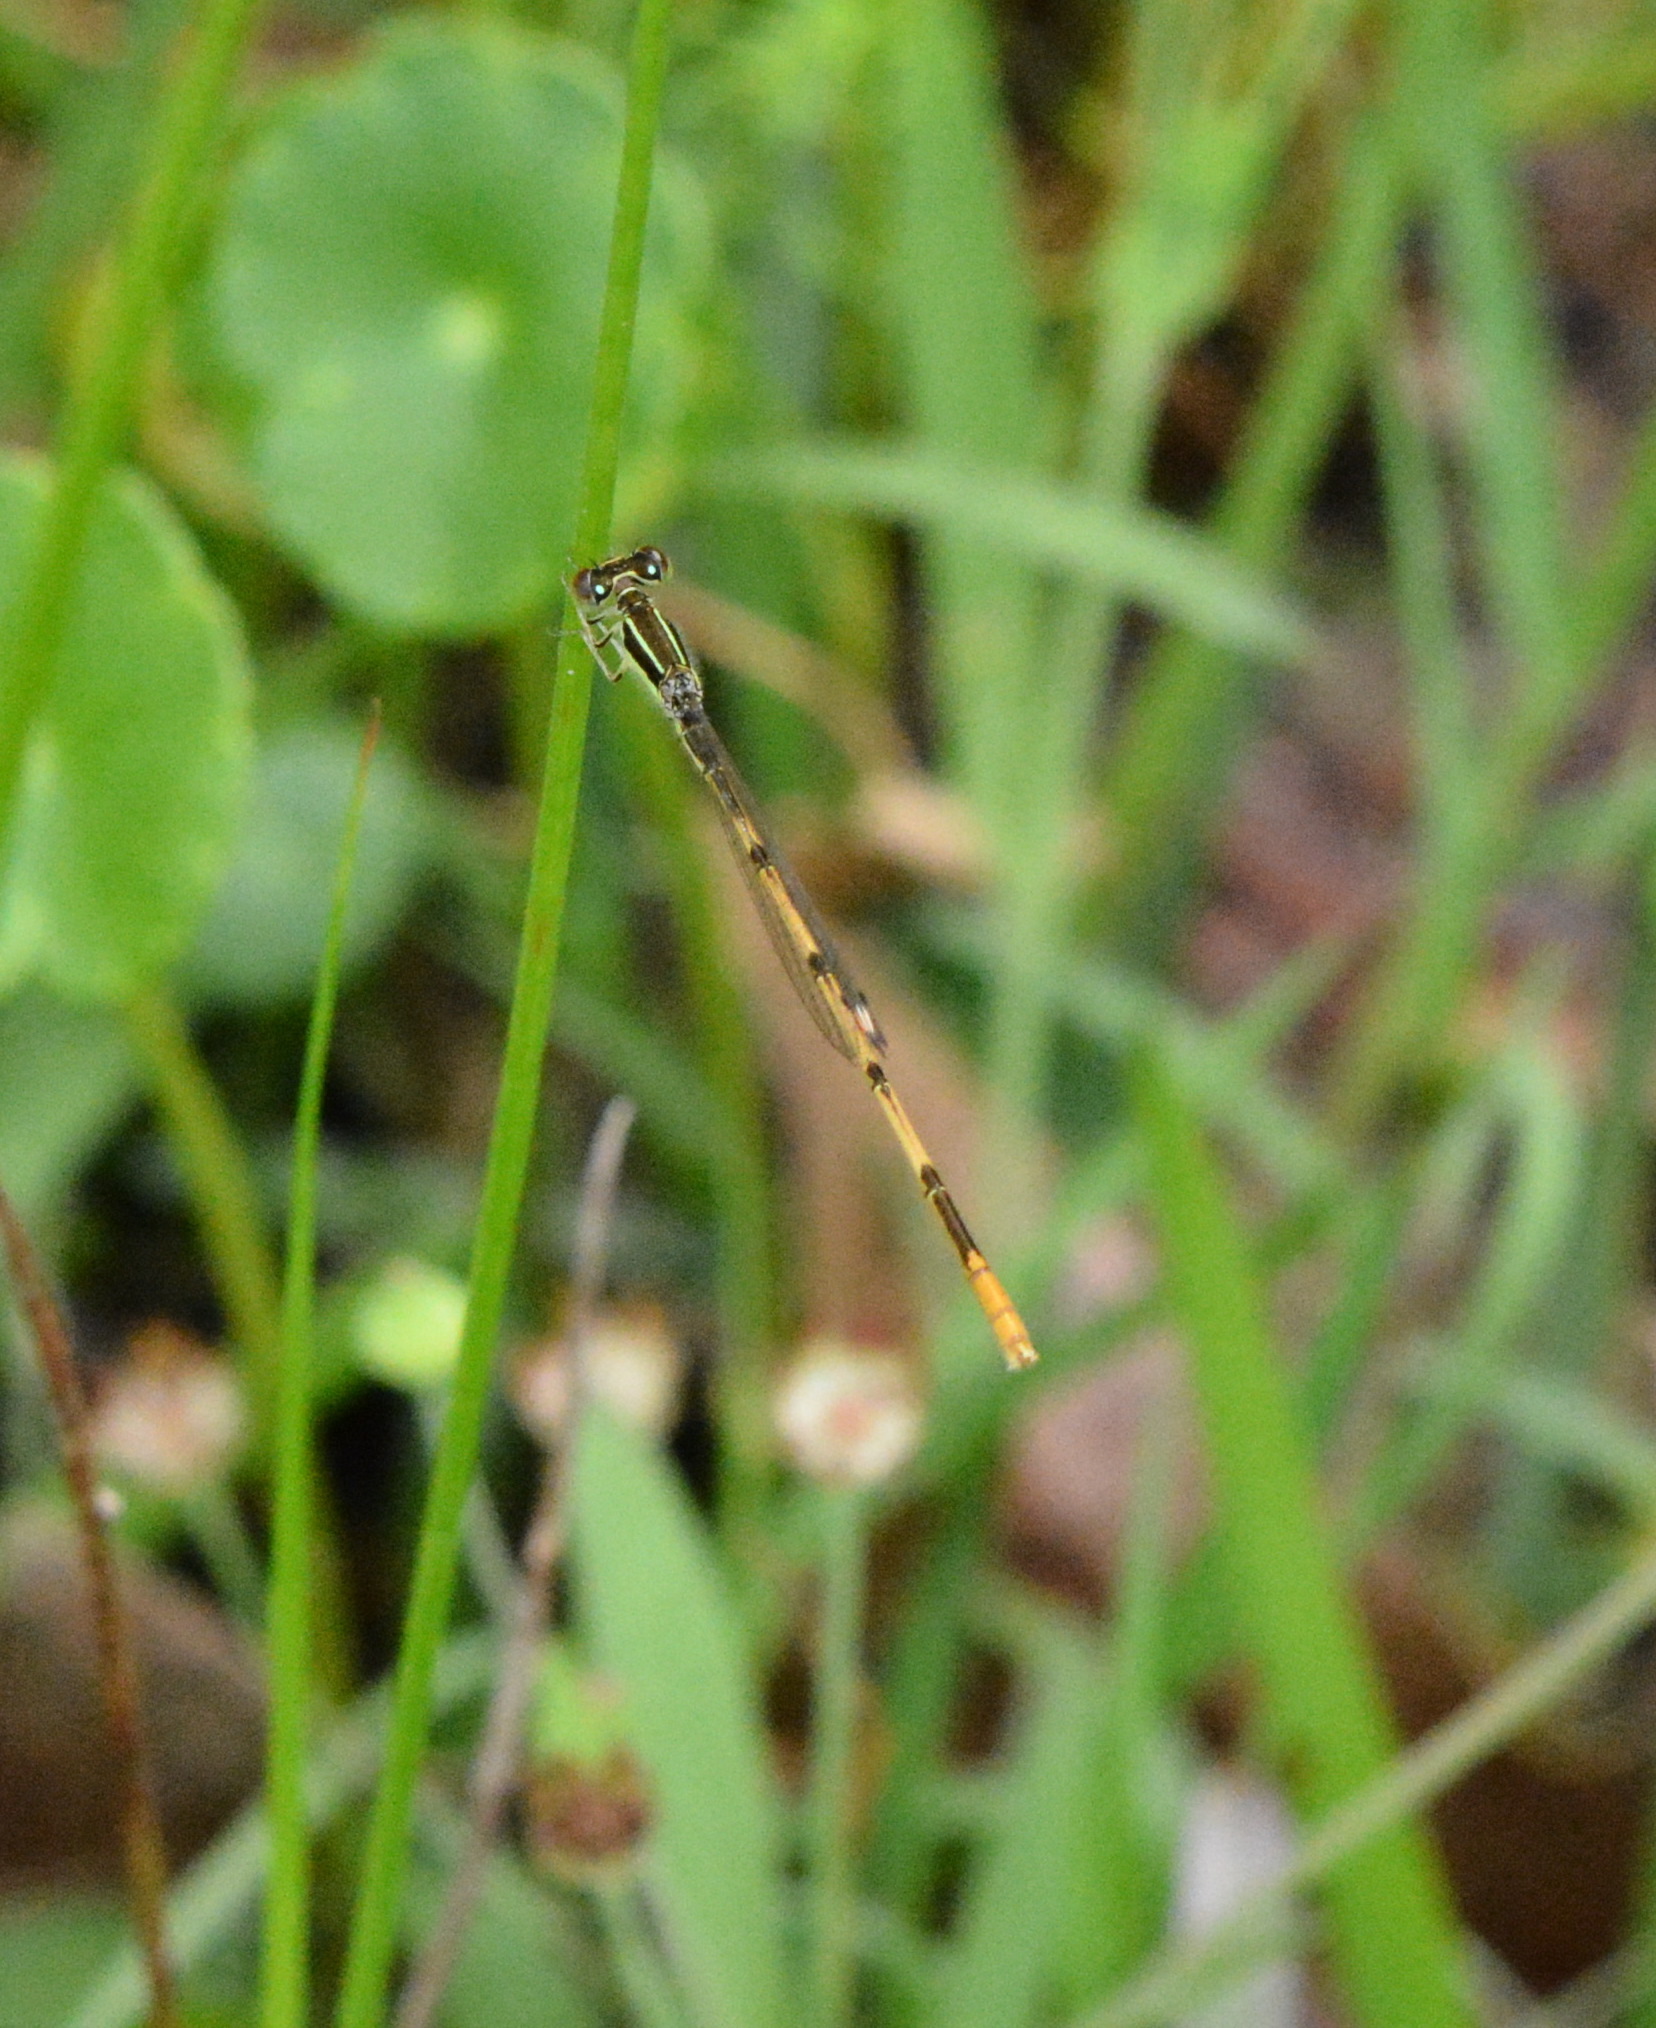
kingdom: Animalia
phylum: Arthropoda
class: Insecta
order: Odonata
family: Coenagrionidae
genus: Ischnura
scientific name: Ischnura hastata
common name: Citrine forktail
